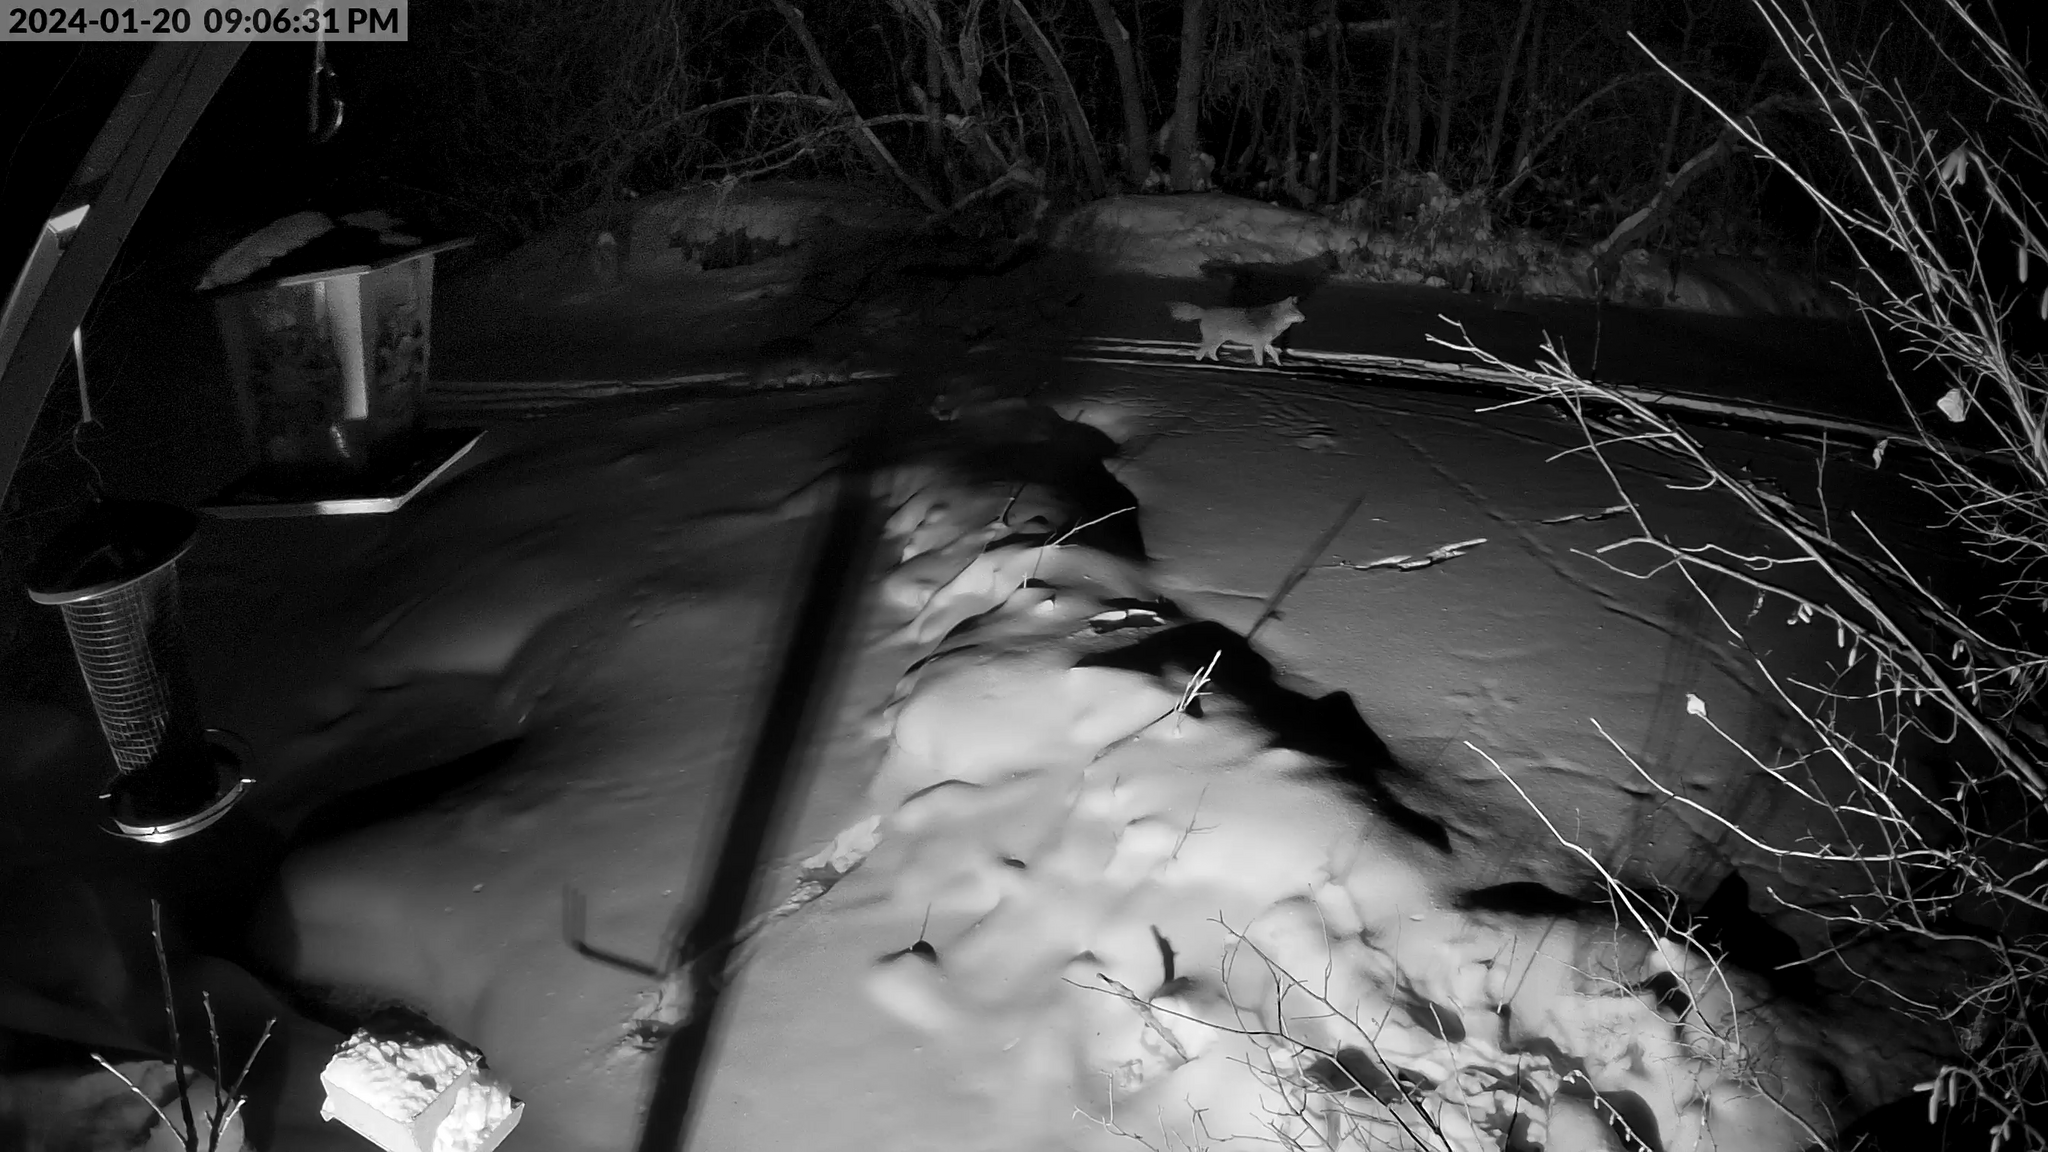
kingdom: Animalia
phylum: Chordata
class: Mammalia
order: Carnivora
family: Canidae
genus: Canis
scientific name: Canis latrans
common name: Coyote
